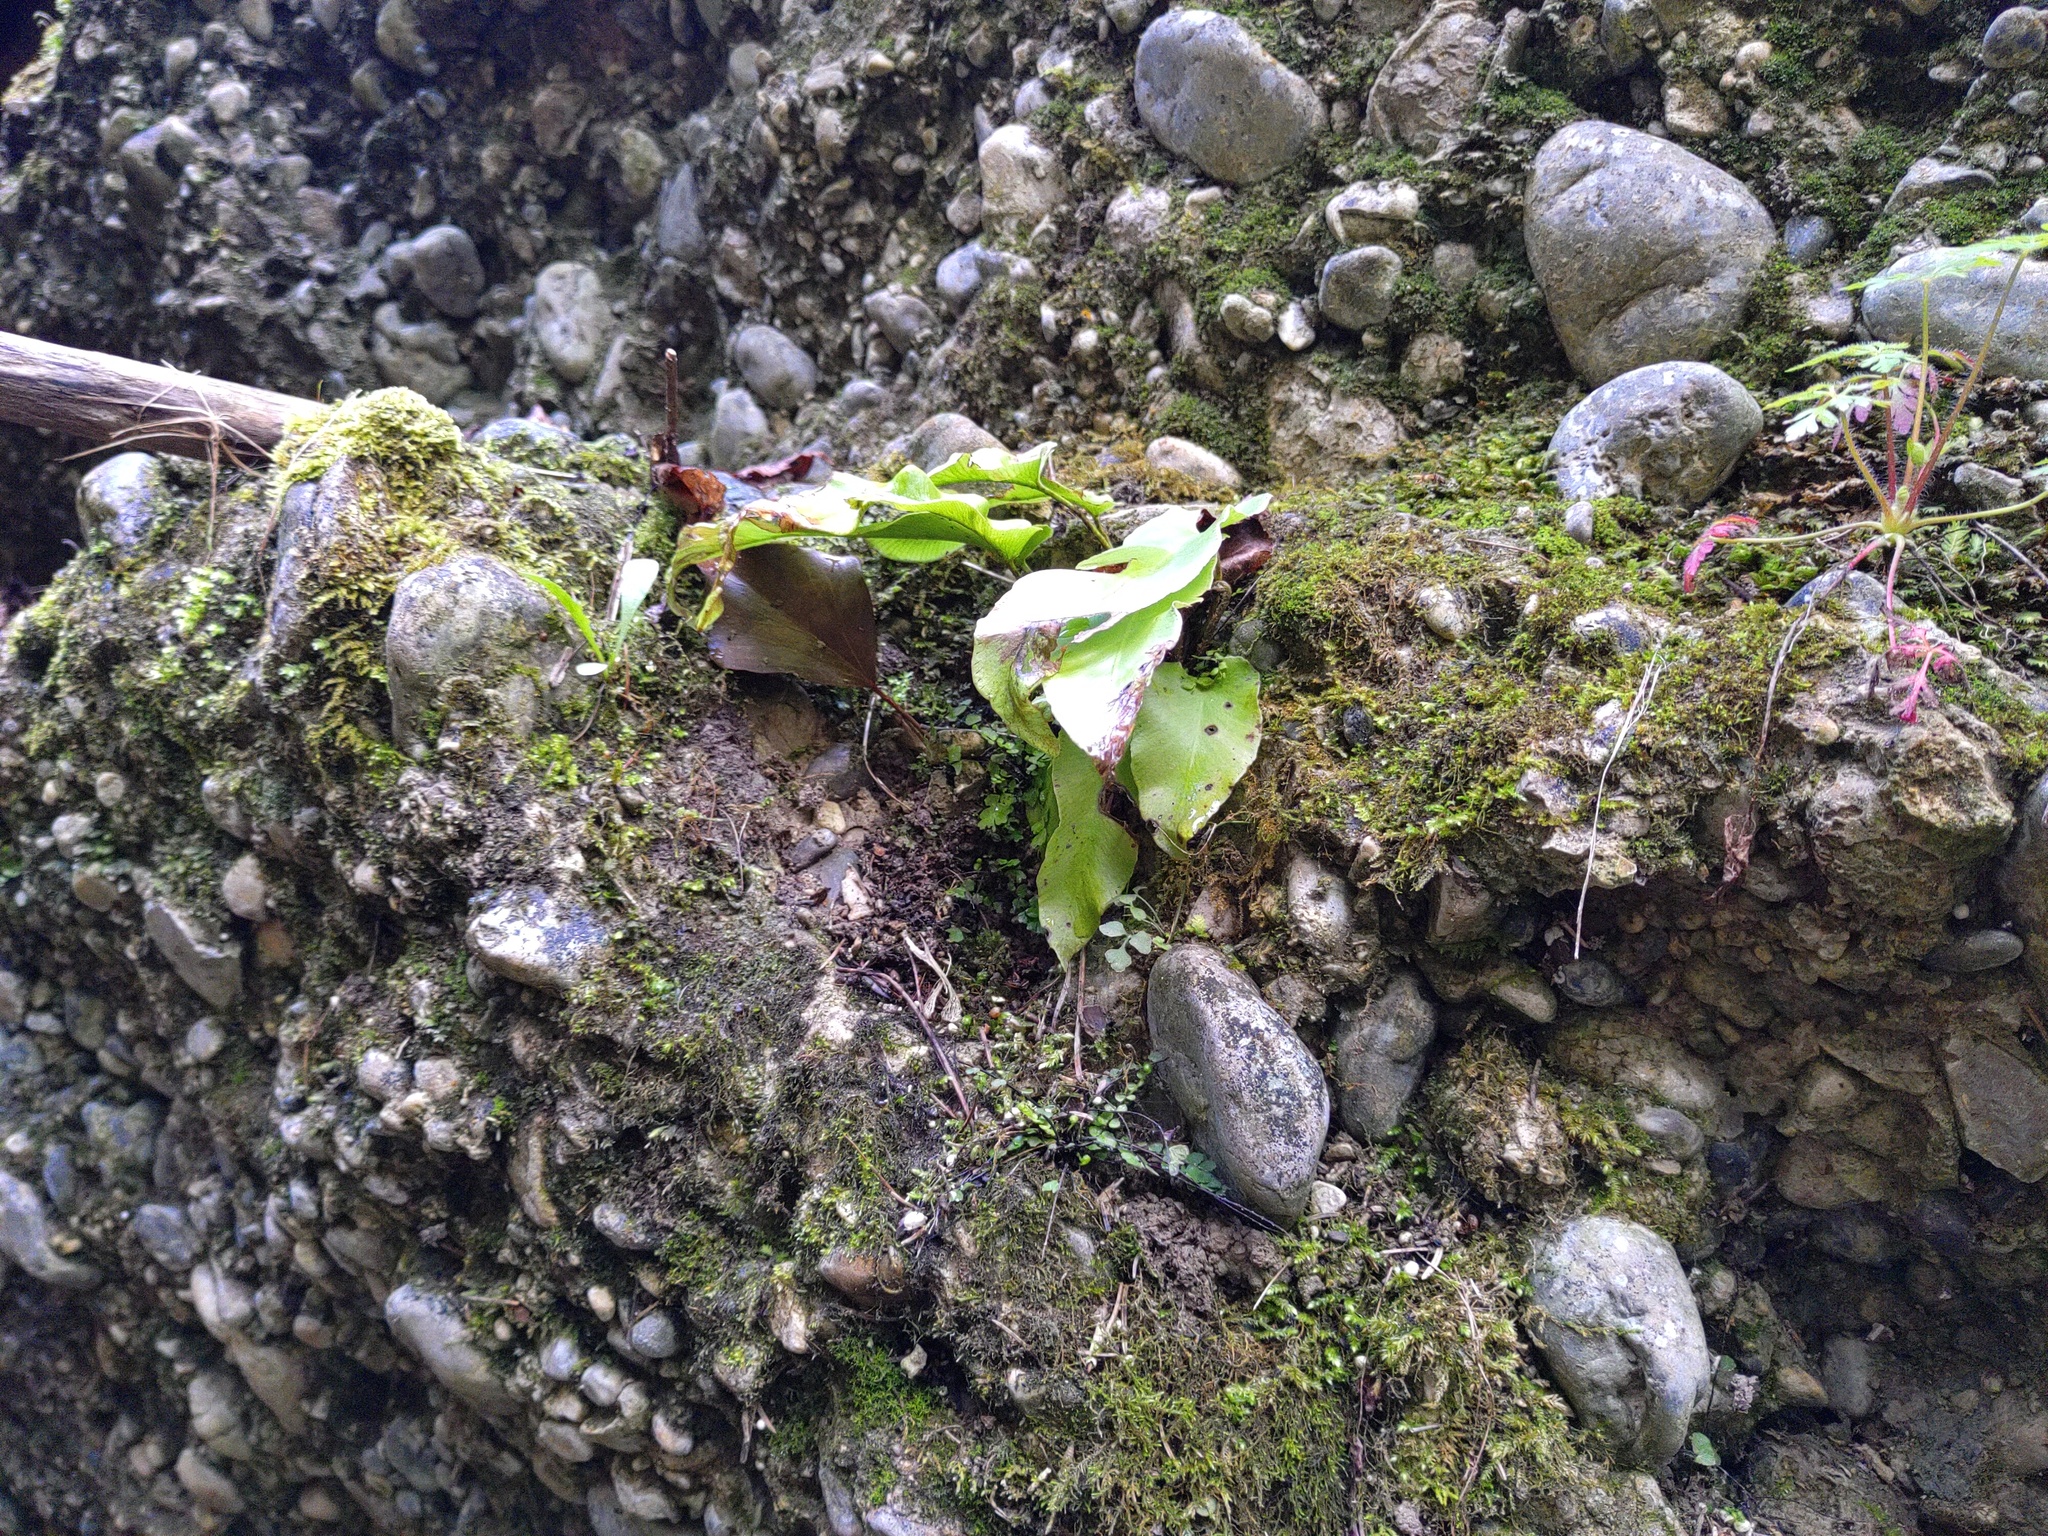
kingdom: Plantae
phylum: Tracheophyta
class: Polypodiopsida
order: Polypodiales
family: Aspleniaceae
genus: Asplenium
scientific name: Asplenium scolopendrium
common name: Hart's-tongue fern
